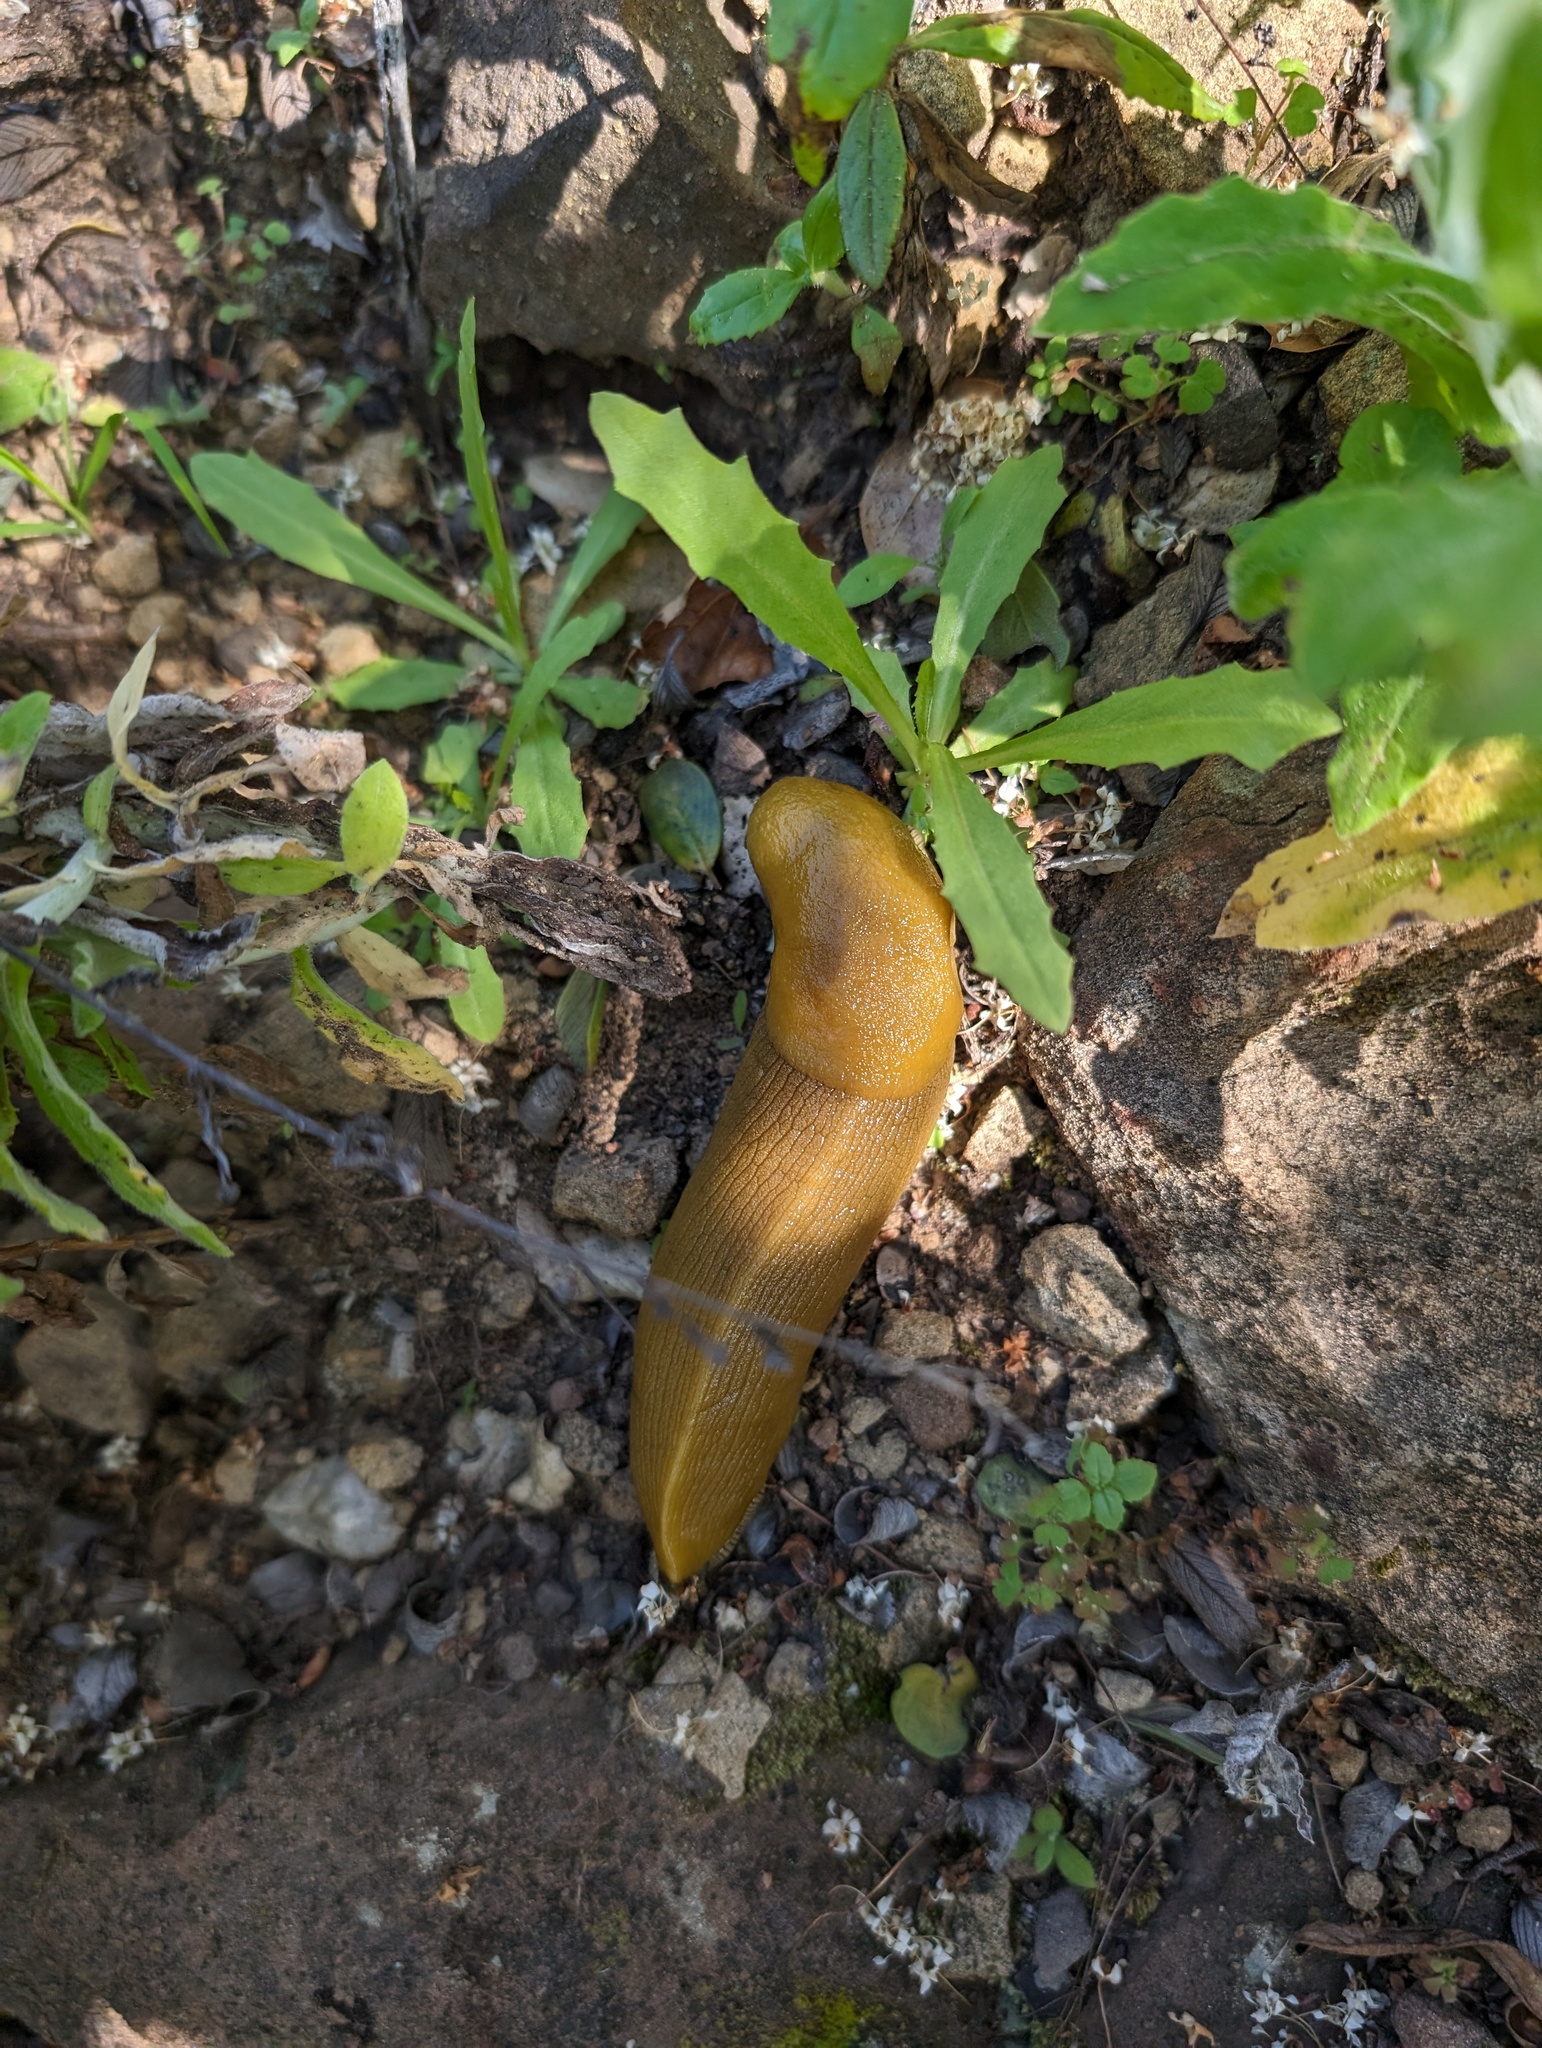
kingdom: Animalia
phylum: Mollusca
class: Gastropoda
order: Stylommatophora
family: Ariolimacidae
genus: Ariolimax
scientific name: Ariolimax stramineus
